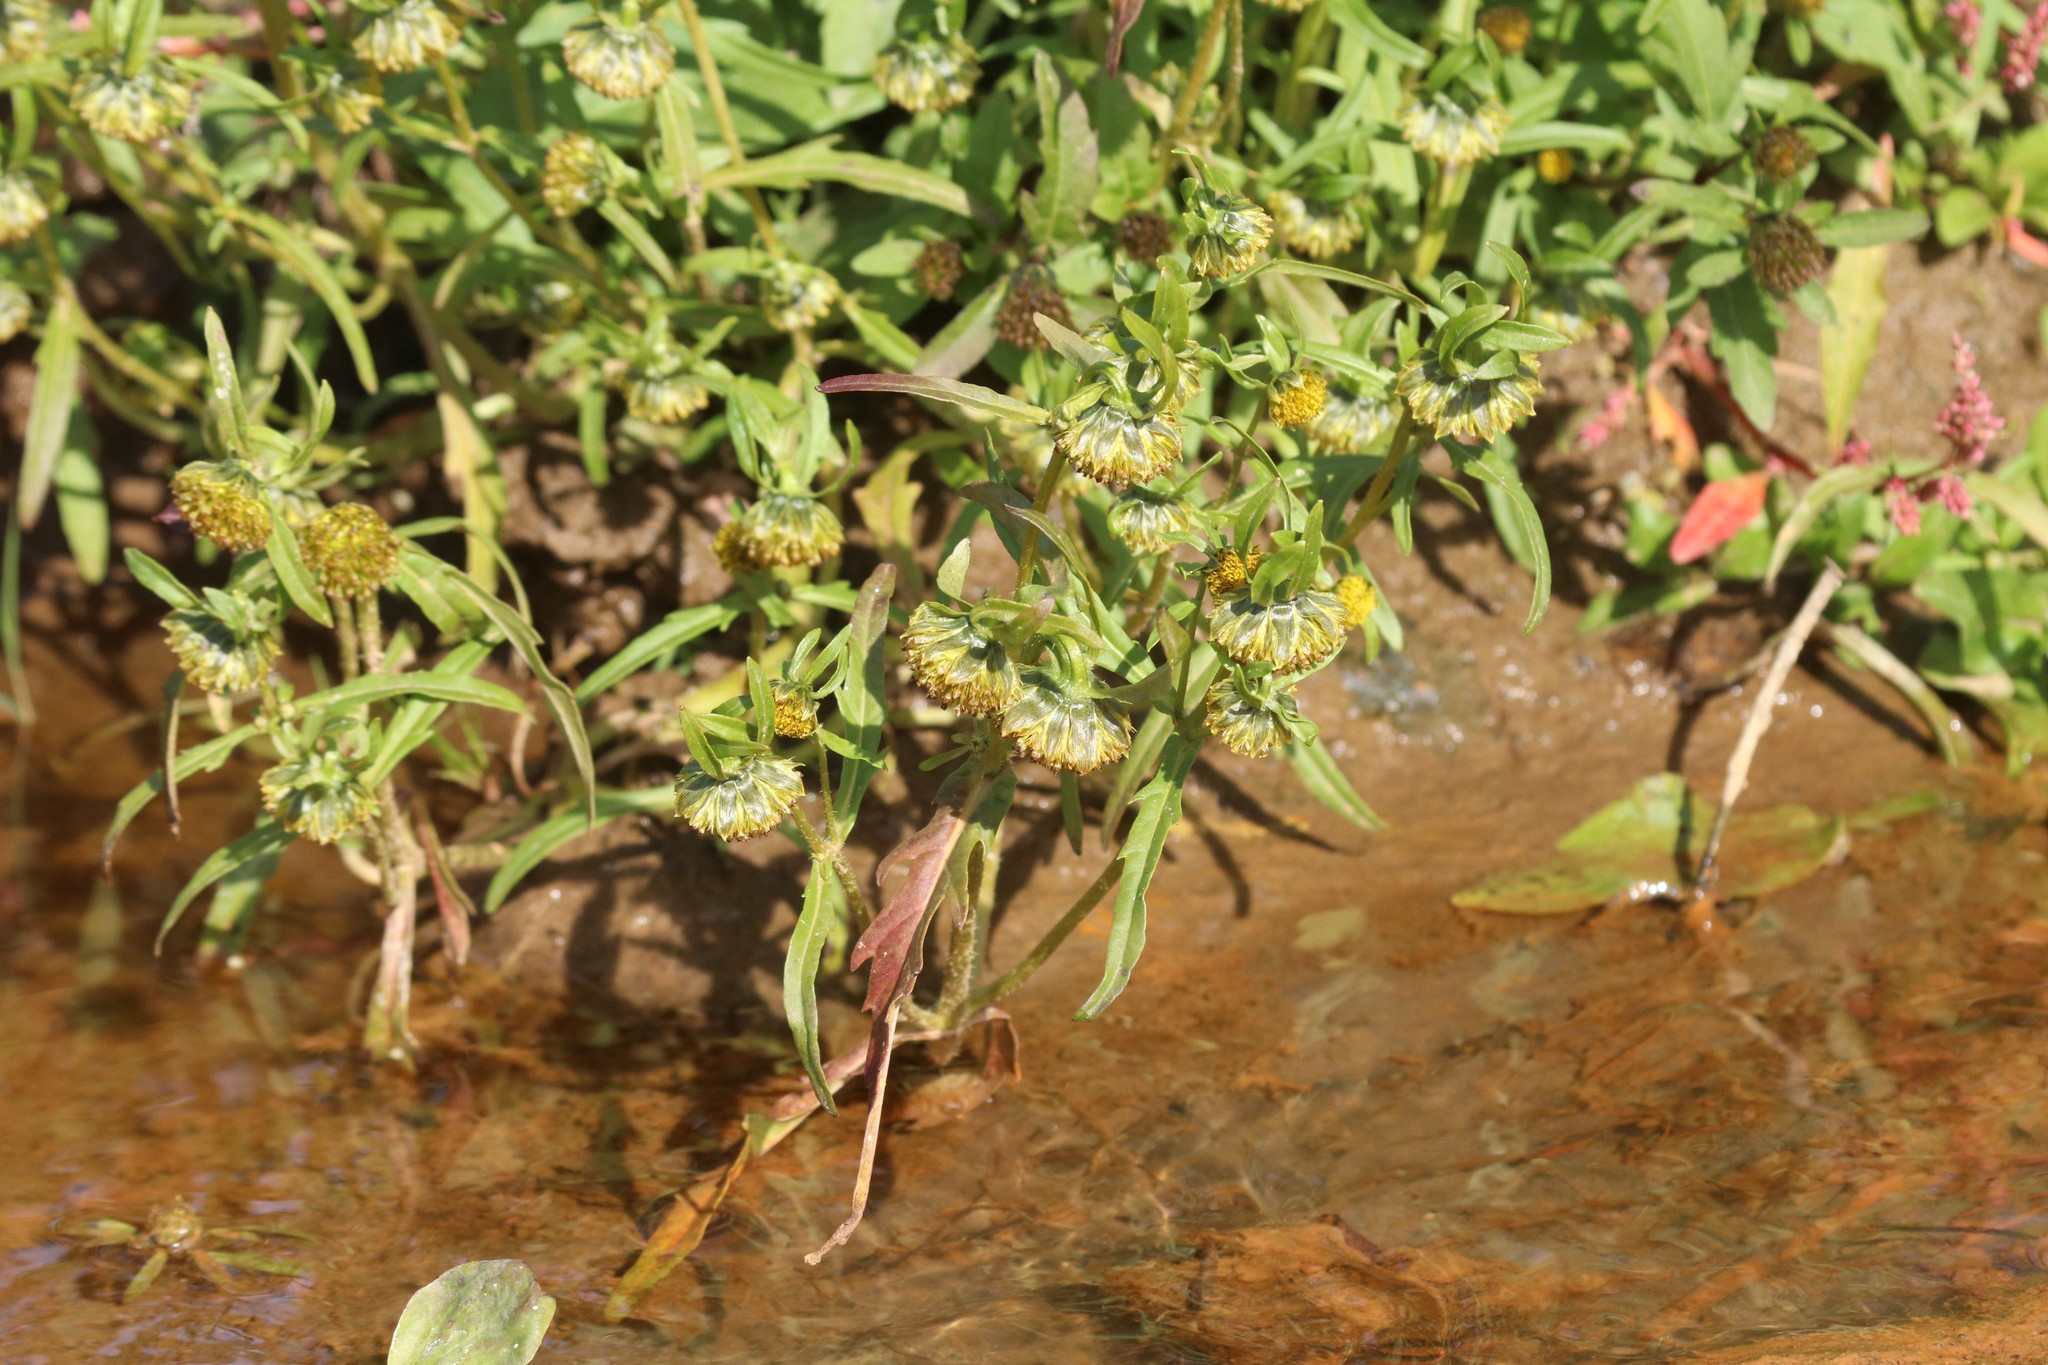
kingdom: Plantae
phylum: Tracheophyta
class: Magnoliopsida
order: Asterales
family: Asteraceae
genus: Bidens
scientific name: Bidens cernua
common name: Nodding bur-marigold
